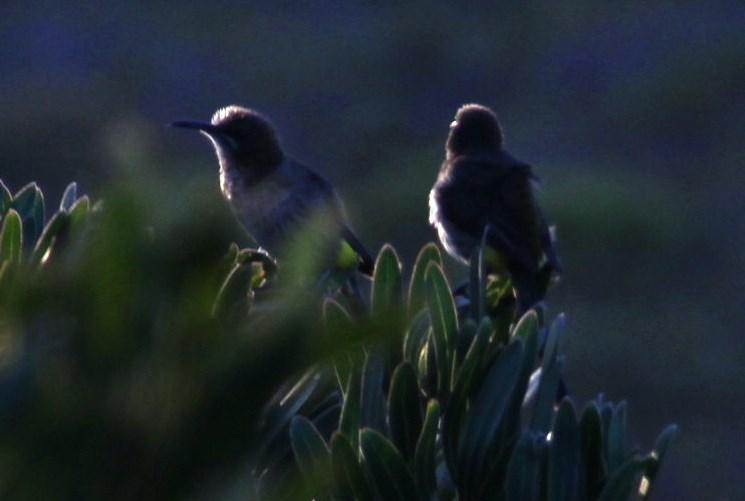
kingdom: Animalia
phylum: Chordata
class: Aves
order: Passeriformes
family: Promeropidae
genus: Promerops
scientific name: Promerops cafer
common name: Cape sugarbird
